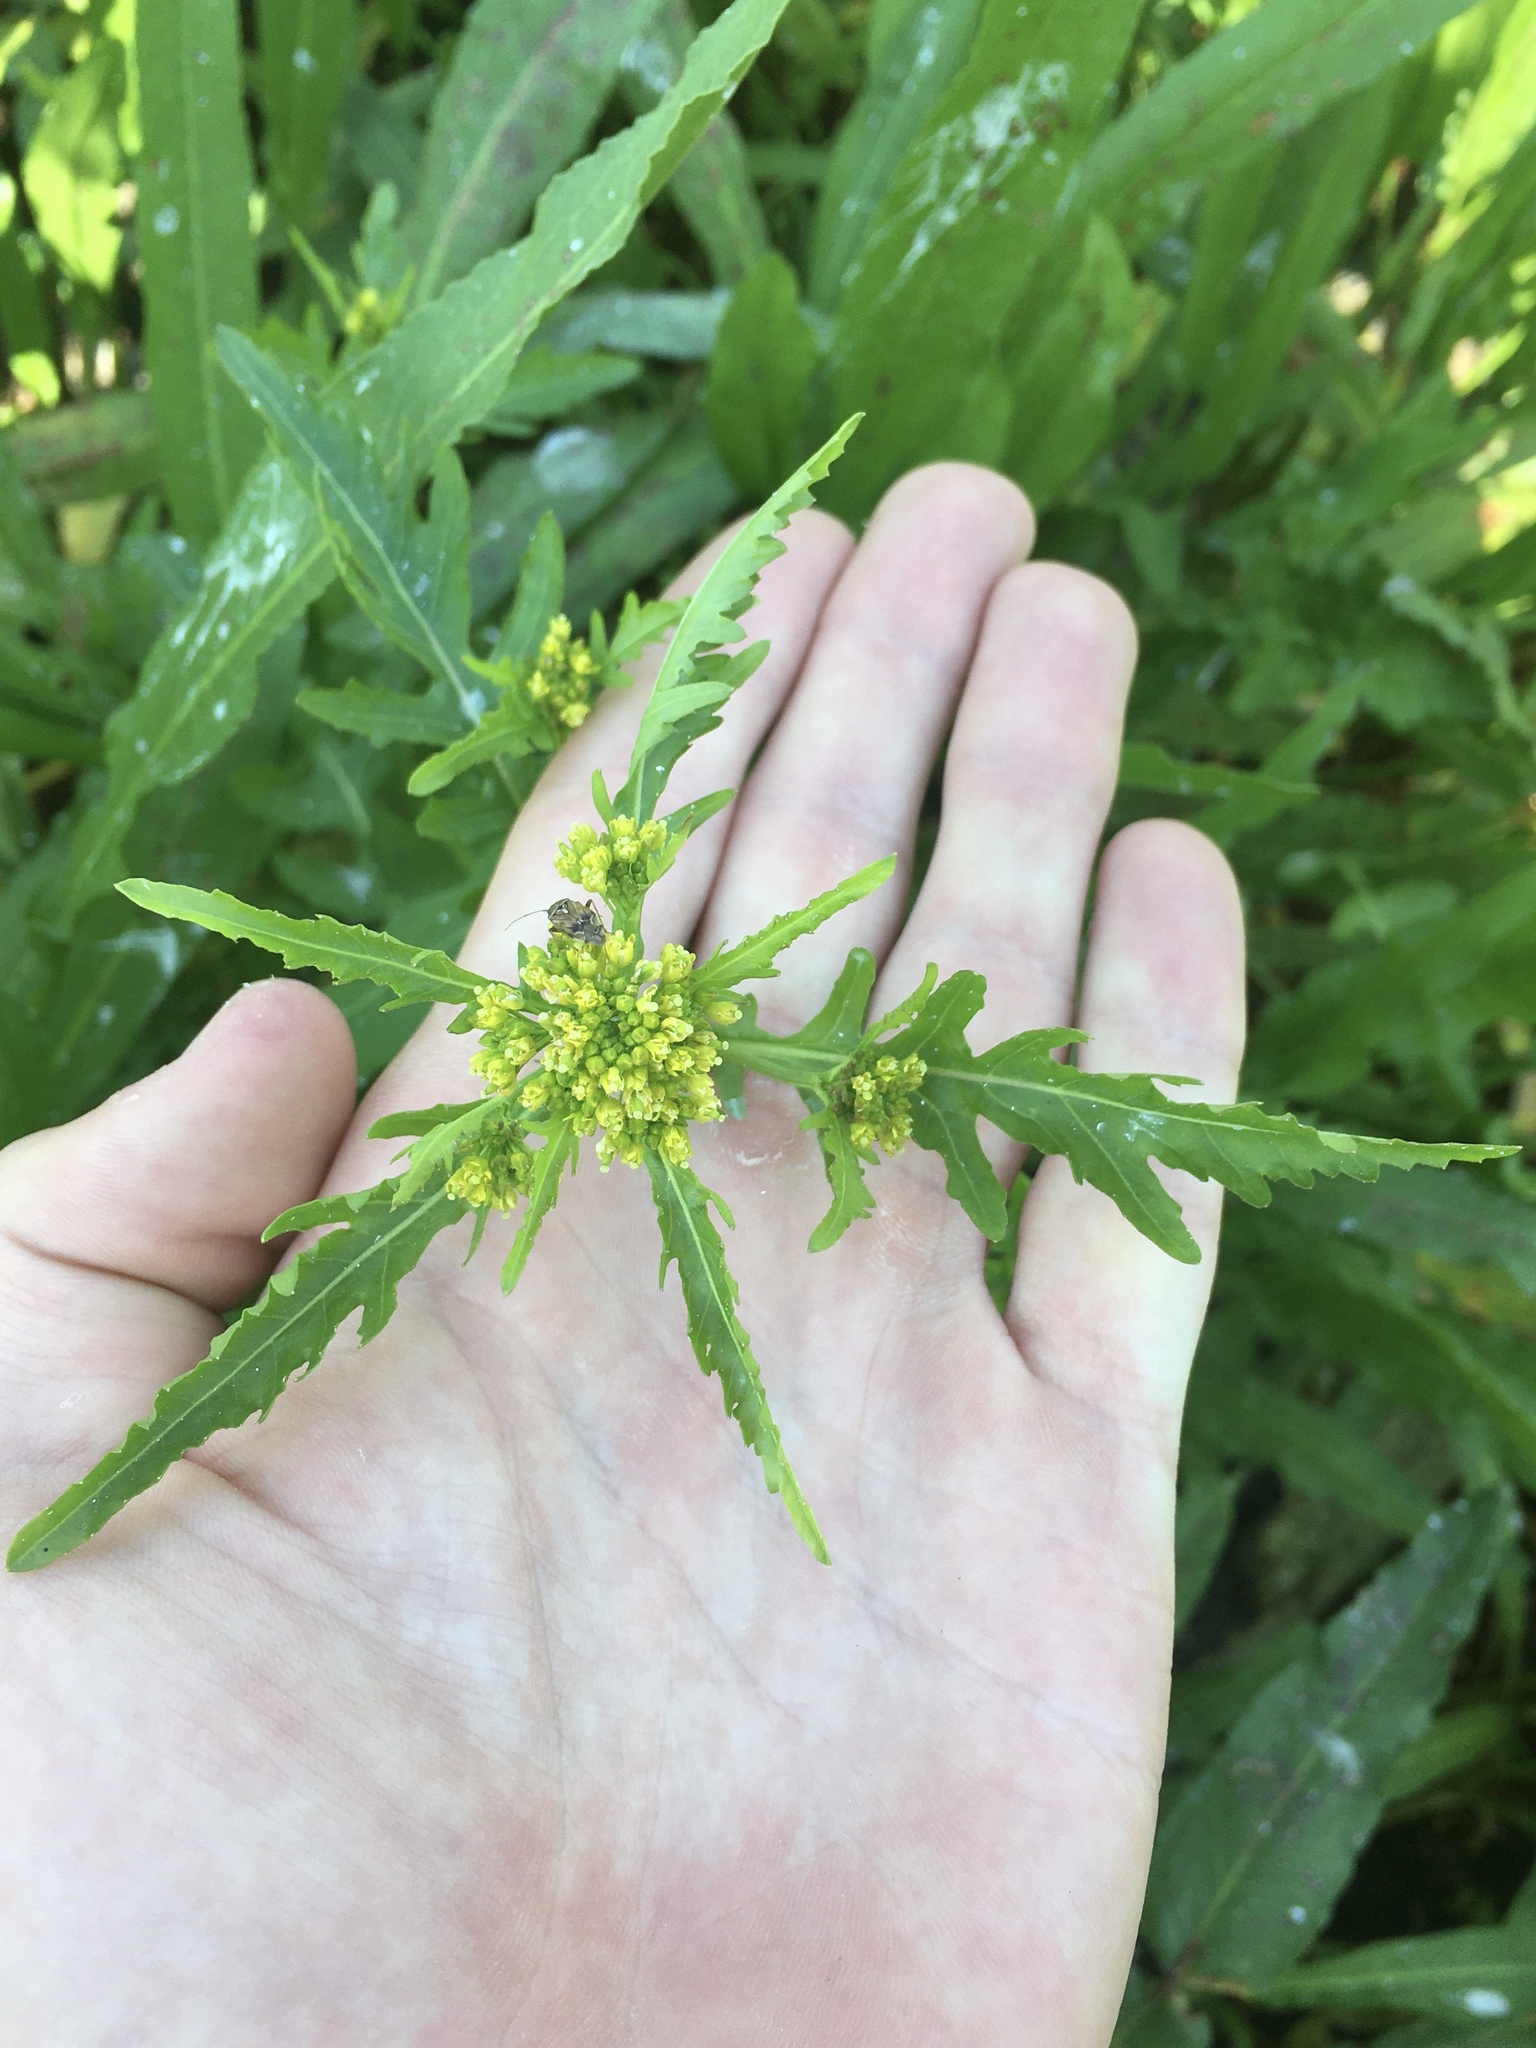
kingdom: Plantae
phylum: Tracheophyta
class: Magnoliopsida
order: Brassicales
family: Brassicaceae
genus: Rorippa
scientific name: Rorippa palustris
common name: Marsh yellow-cress
